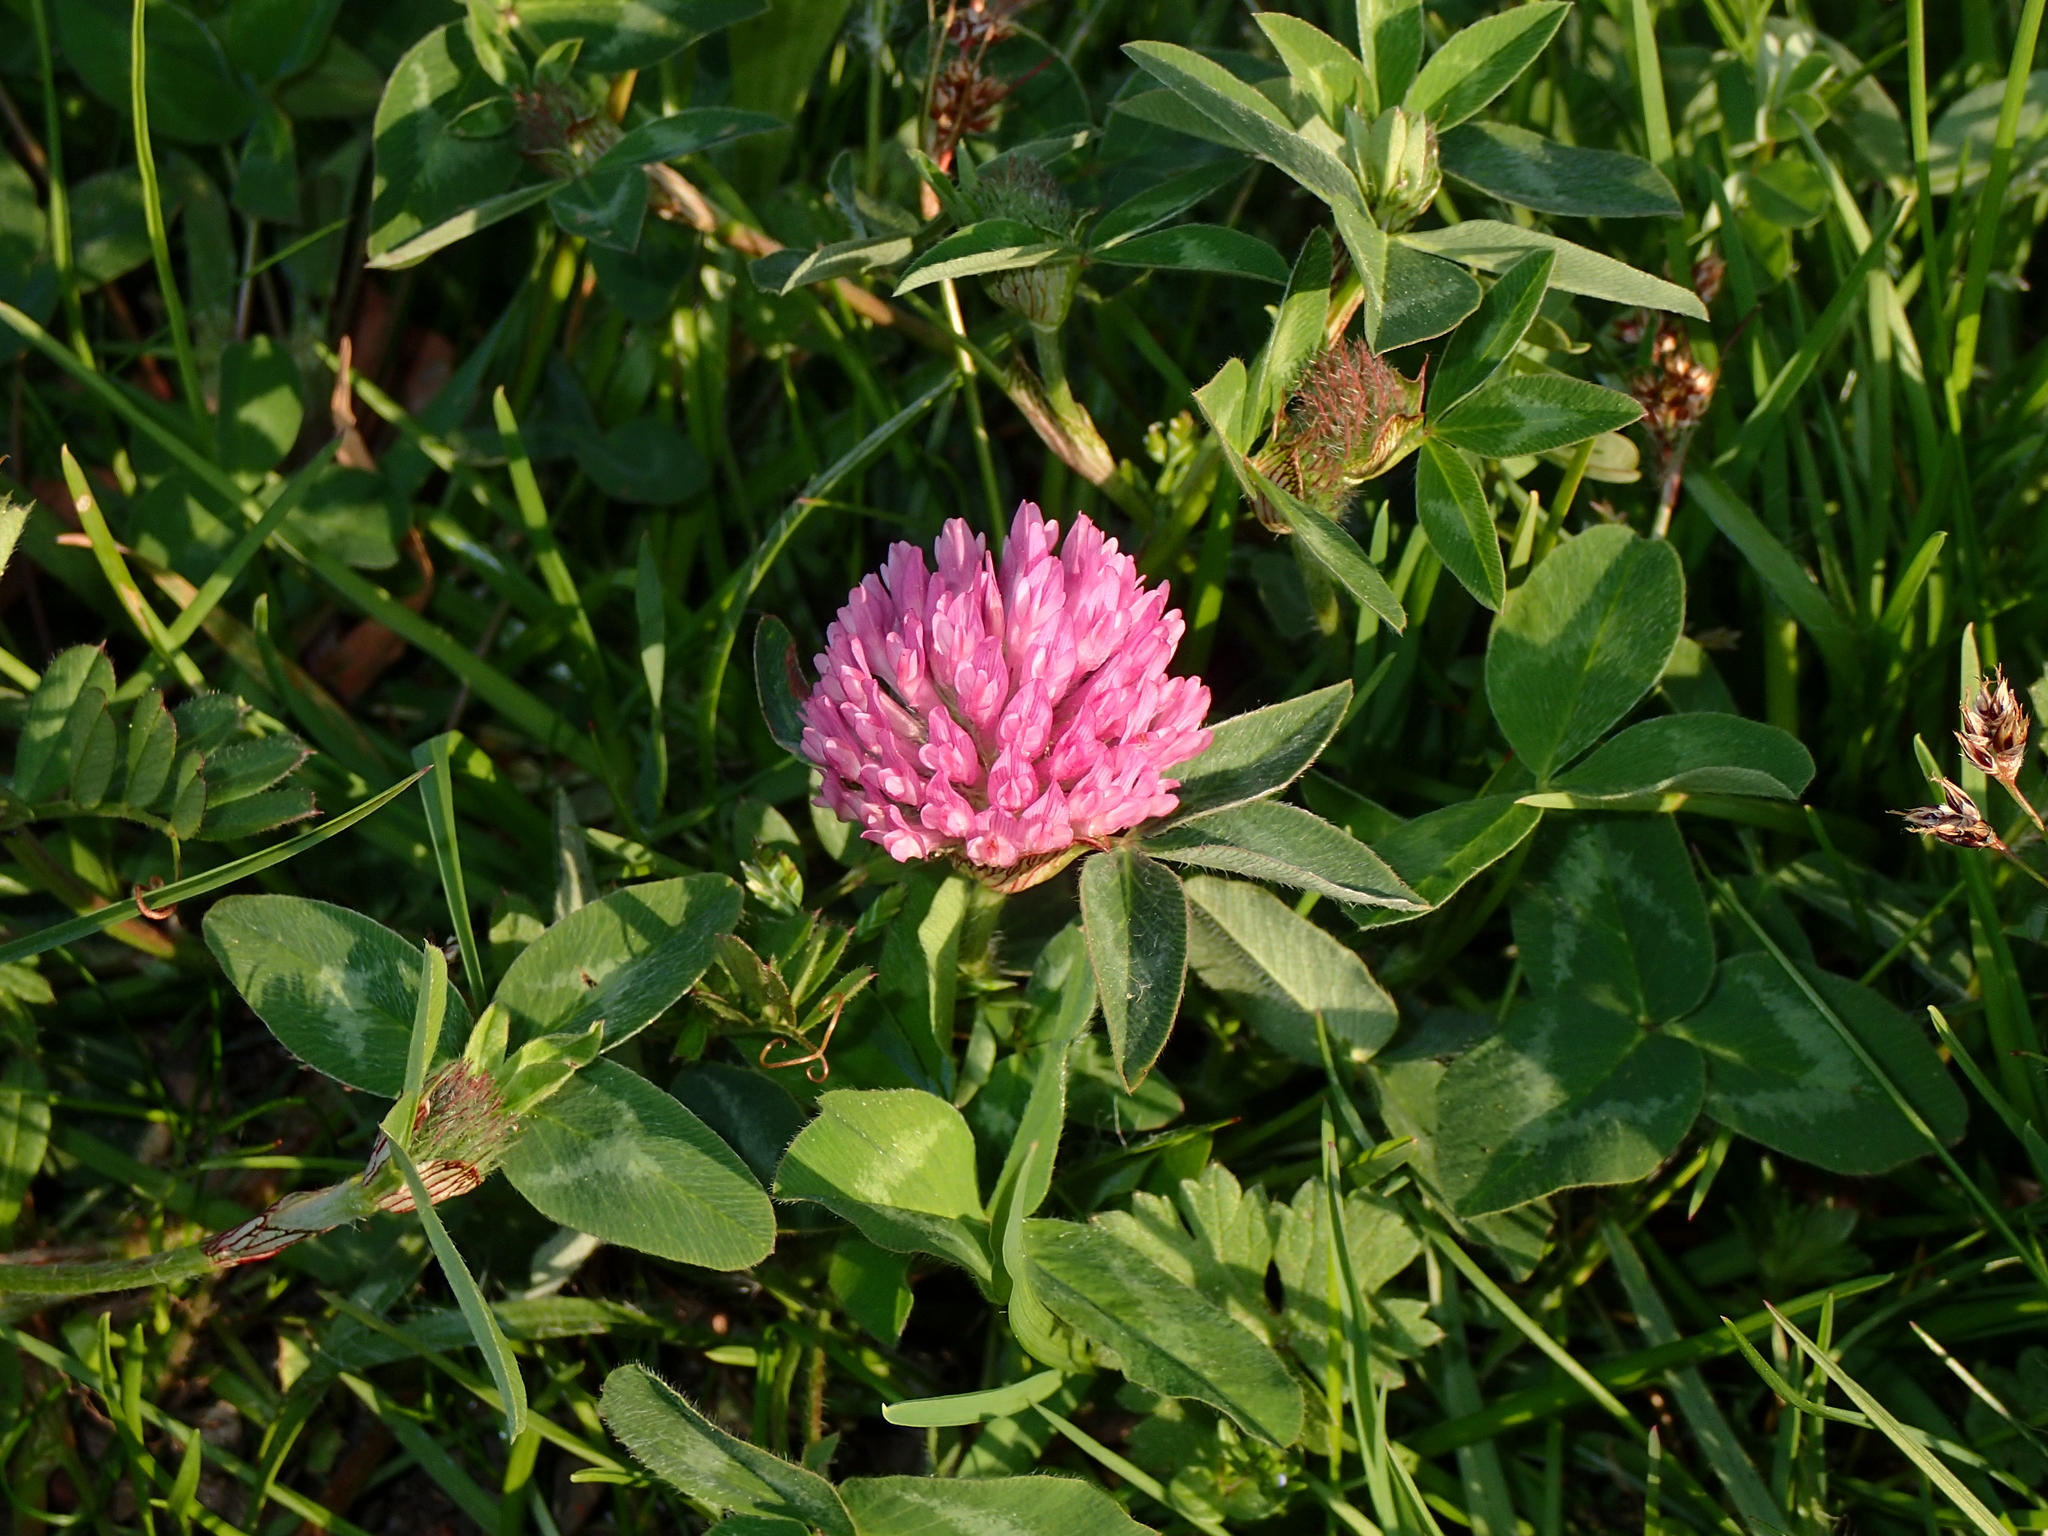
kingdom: Plantae
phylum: Tracheophyta
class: Magnoliopsida
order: Fabales
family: Fabaceae
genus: Trifolium
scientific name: Trifolium pratense
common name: Red clover
